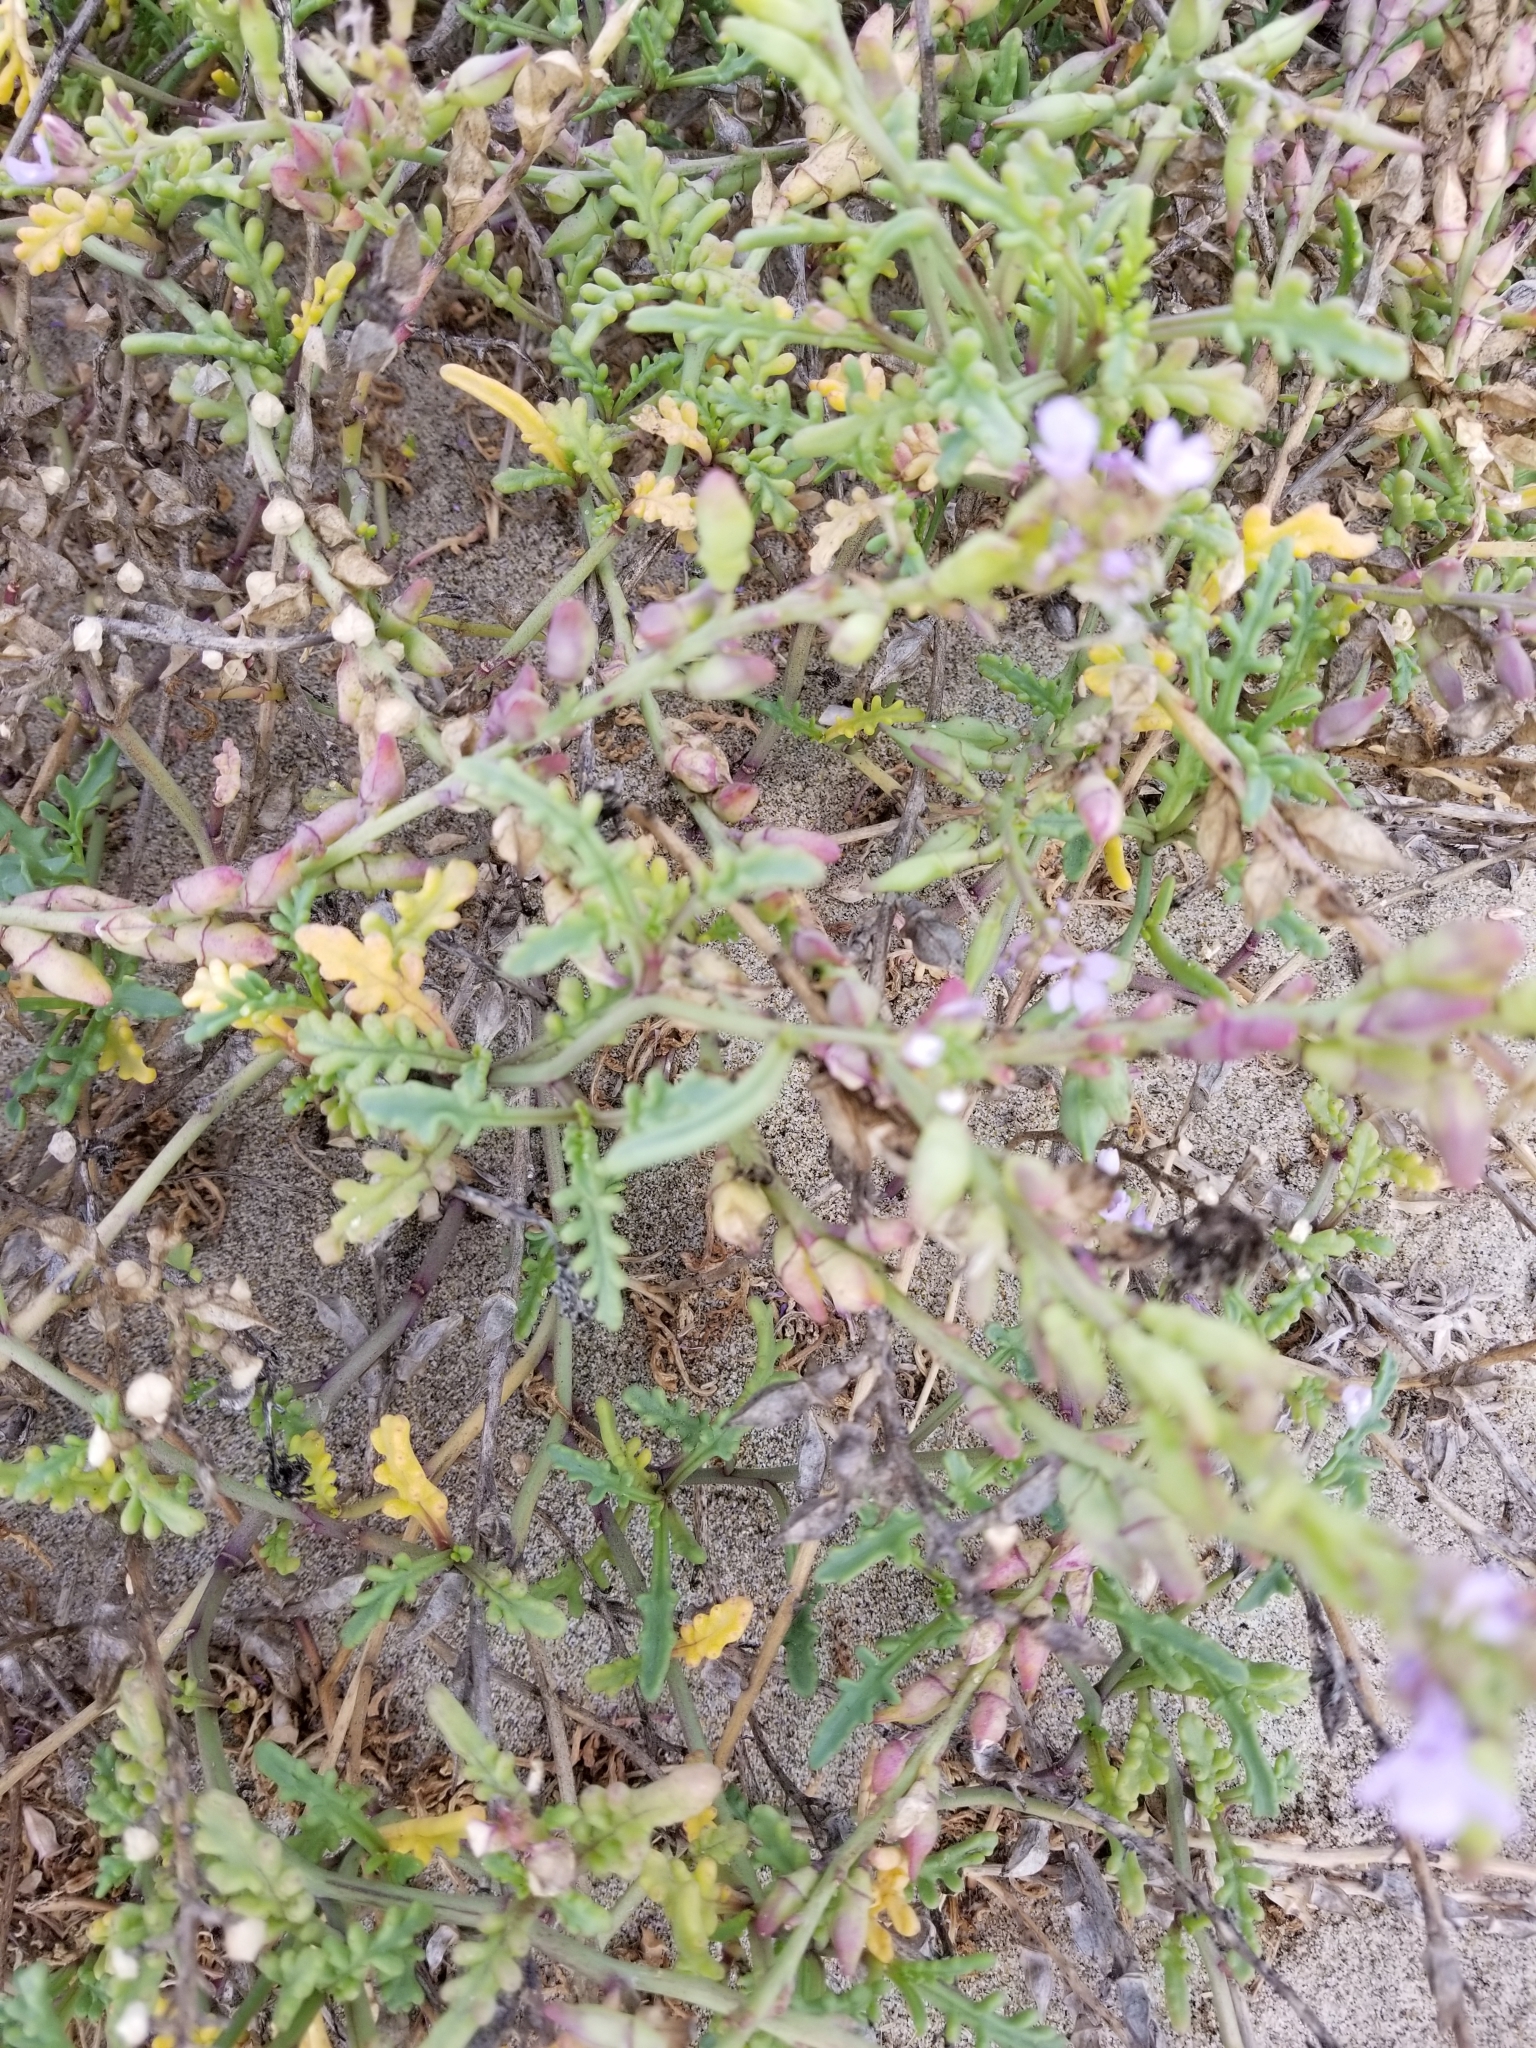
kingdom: Plantae
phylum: Tracheophyta
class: Magnoliopsida
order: Brassicales
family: Brassicaceae
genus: Cakile
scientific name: Cakile maritima
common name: Sea rocket
